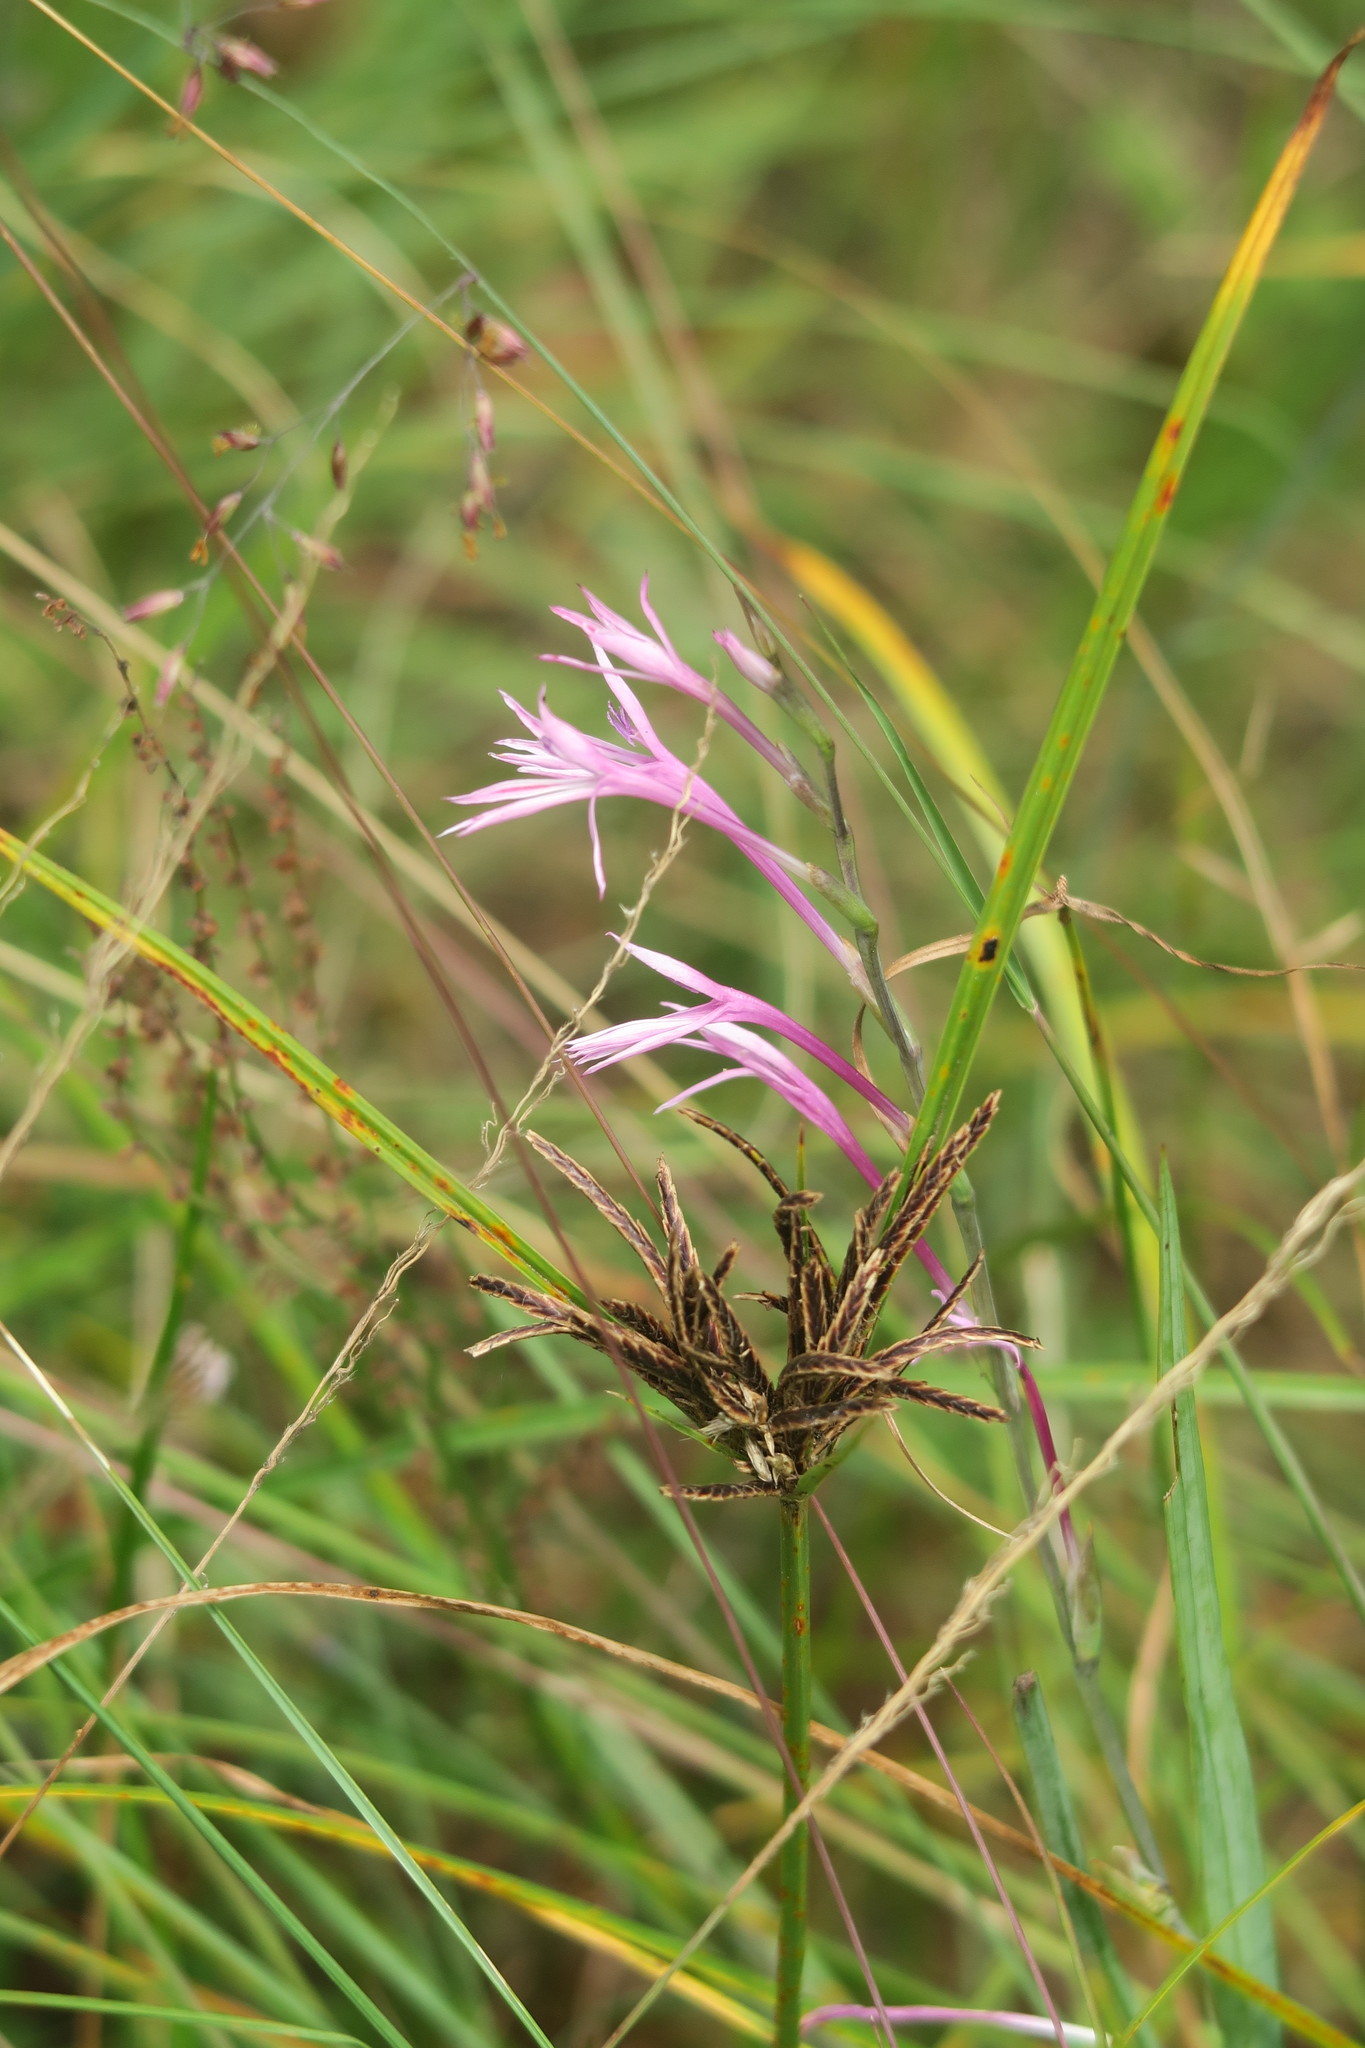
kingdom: Plantae
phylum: Tracheophyta
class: Liliopsida
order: Asparagales
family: Iridaceae
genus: Radinosiphon
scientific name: Radinosiphon leptostachya
